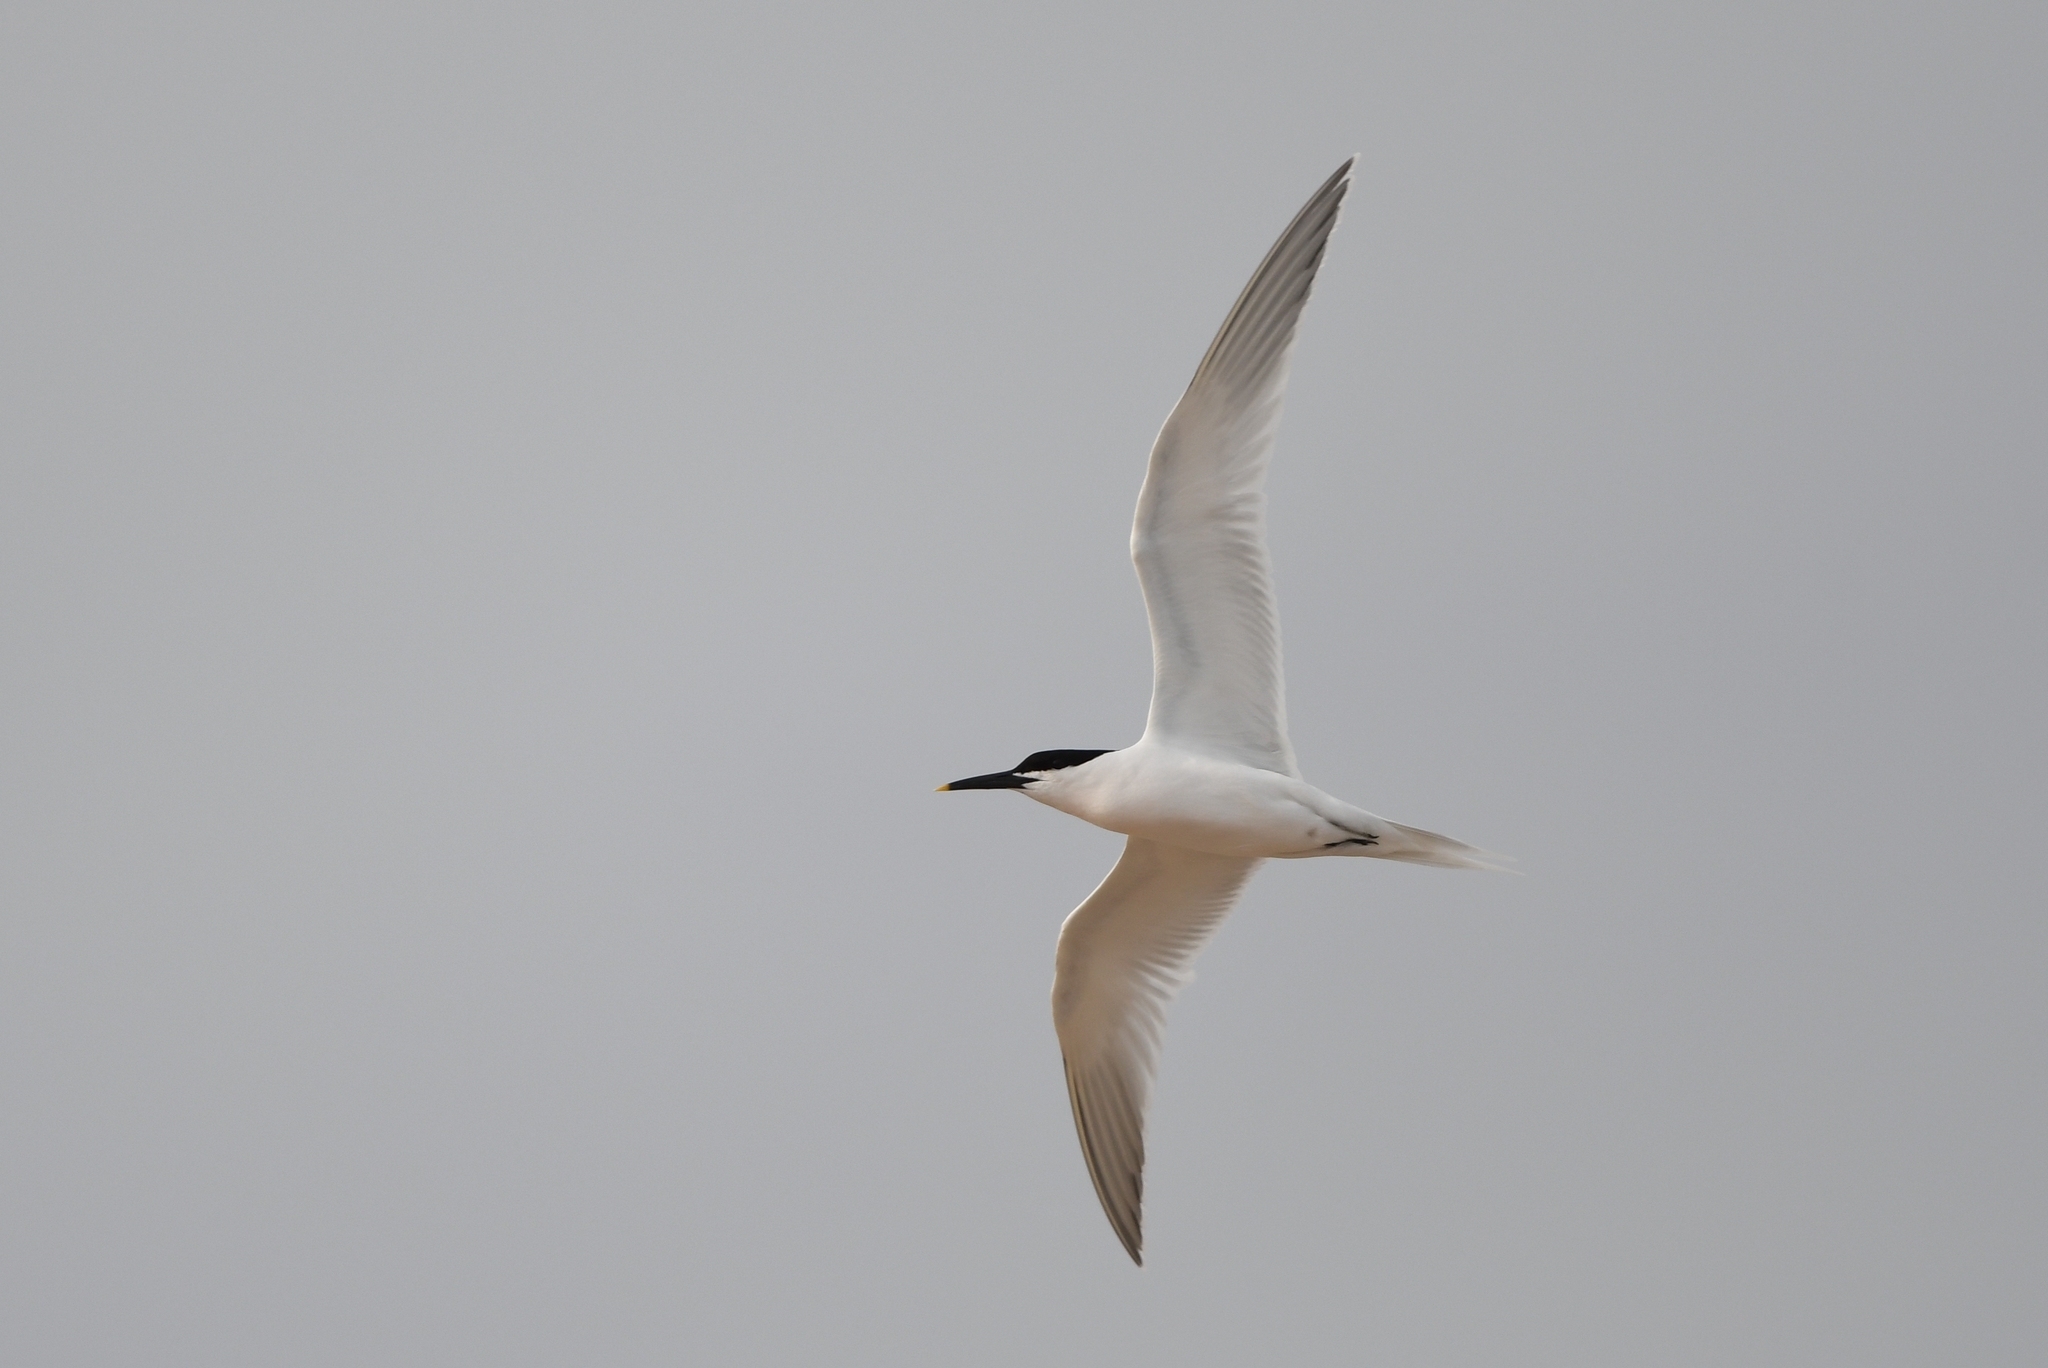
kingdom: Animalia
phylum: Chordata
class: Aves
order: Charadriiformes
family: Laridae
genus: Thalasseus
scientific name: Thalasseus sandvicensis
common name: Sandwich tern
